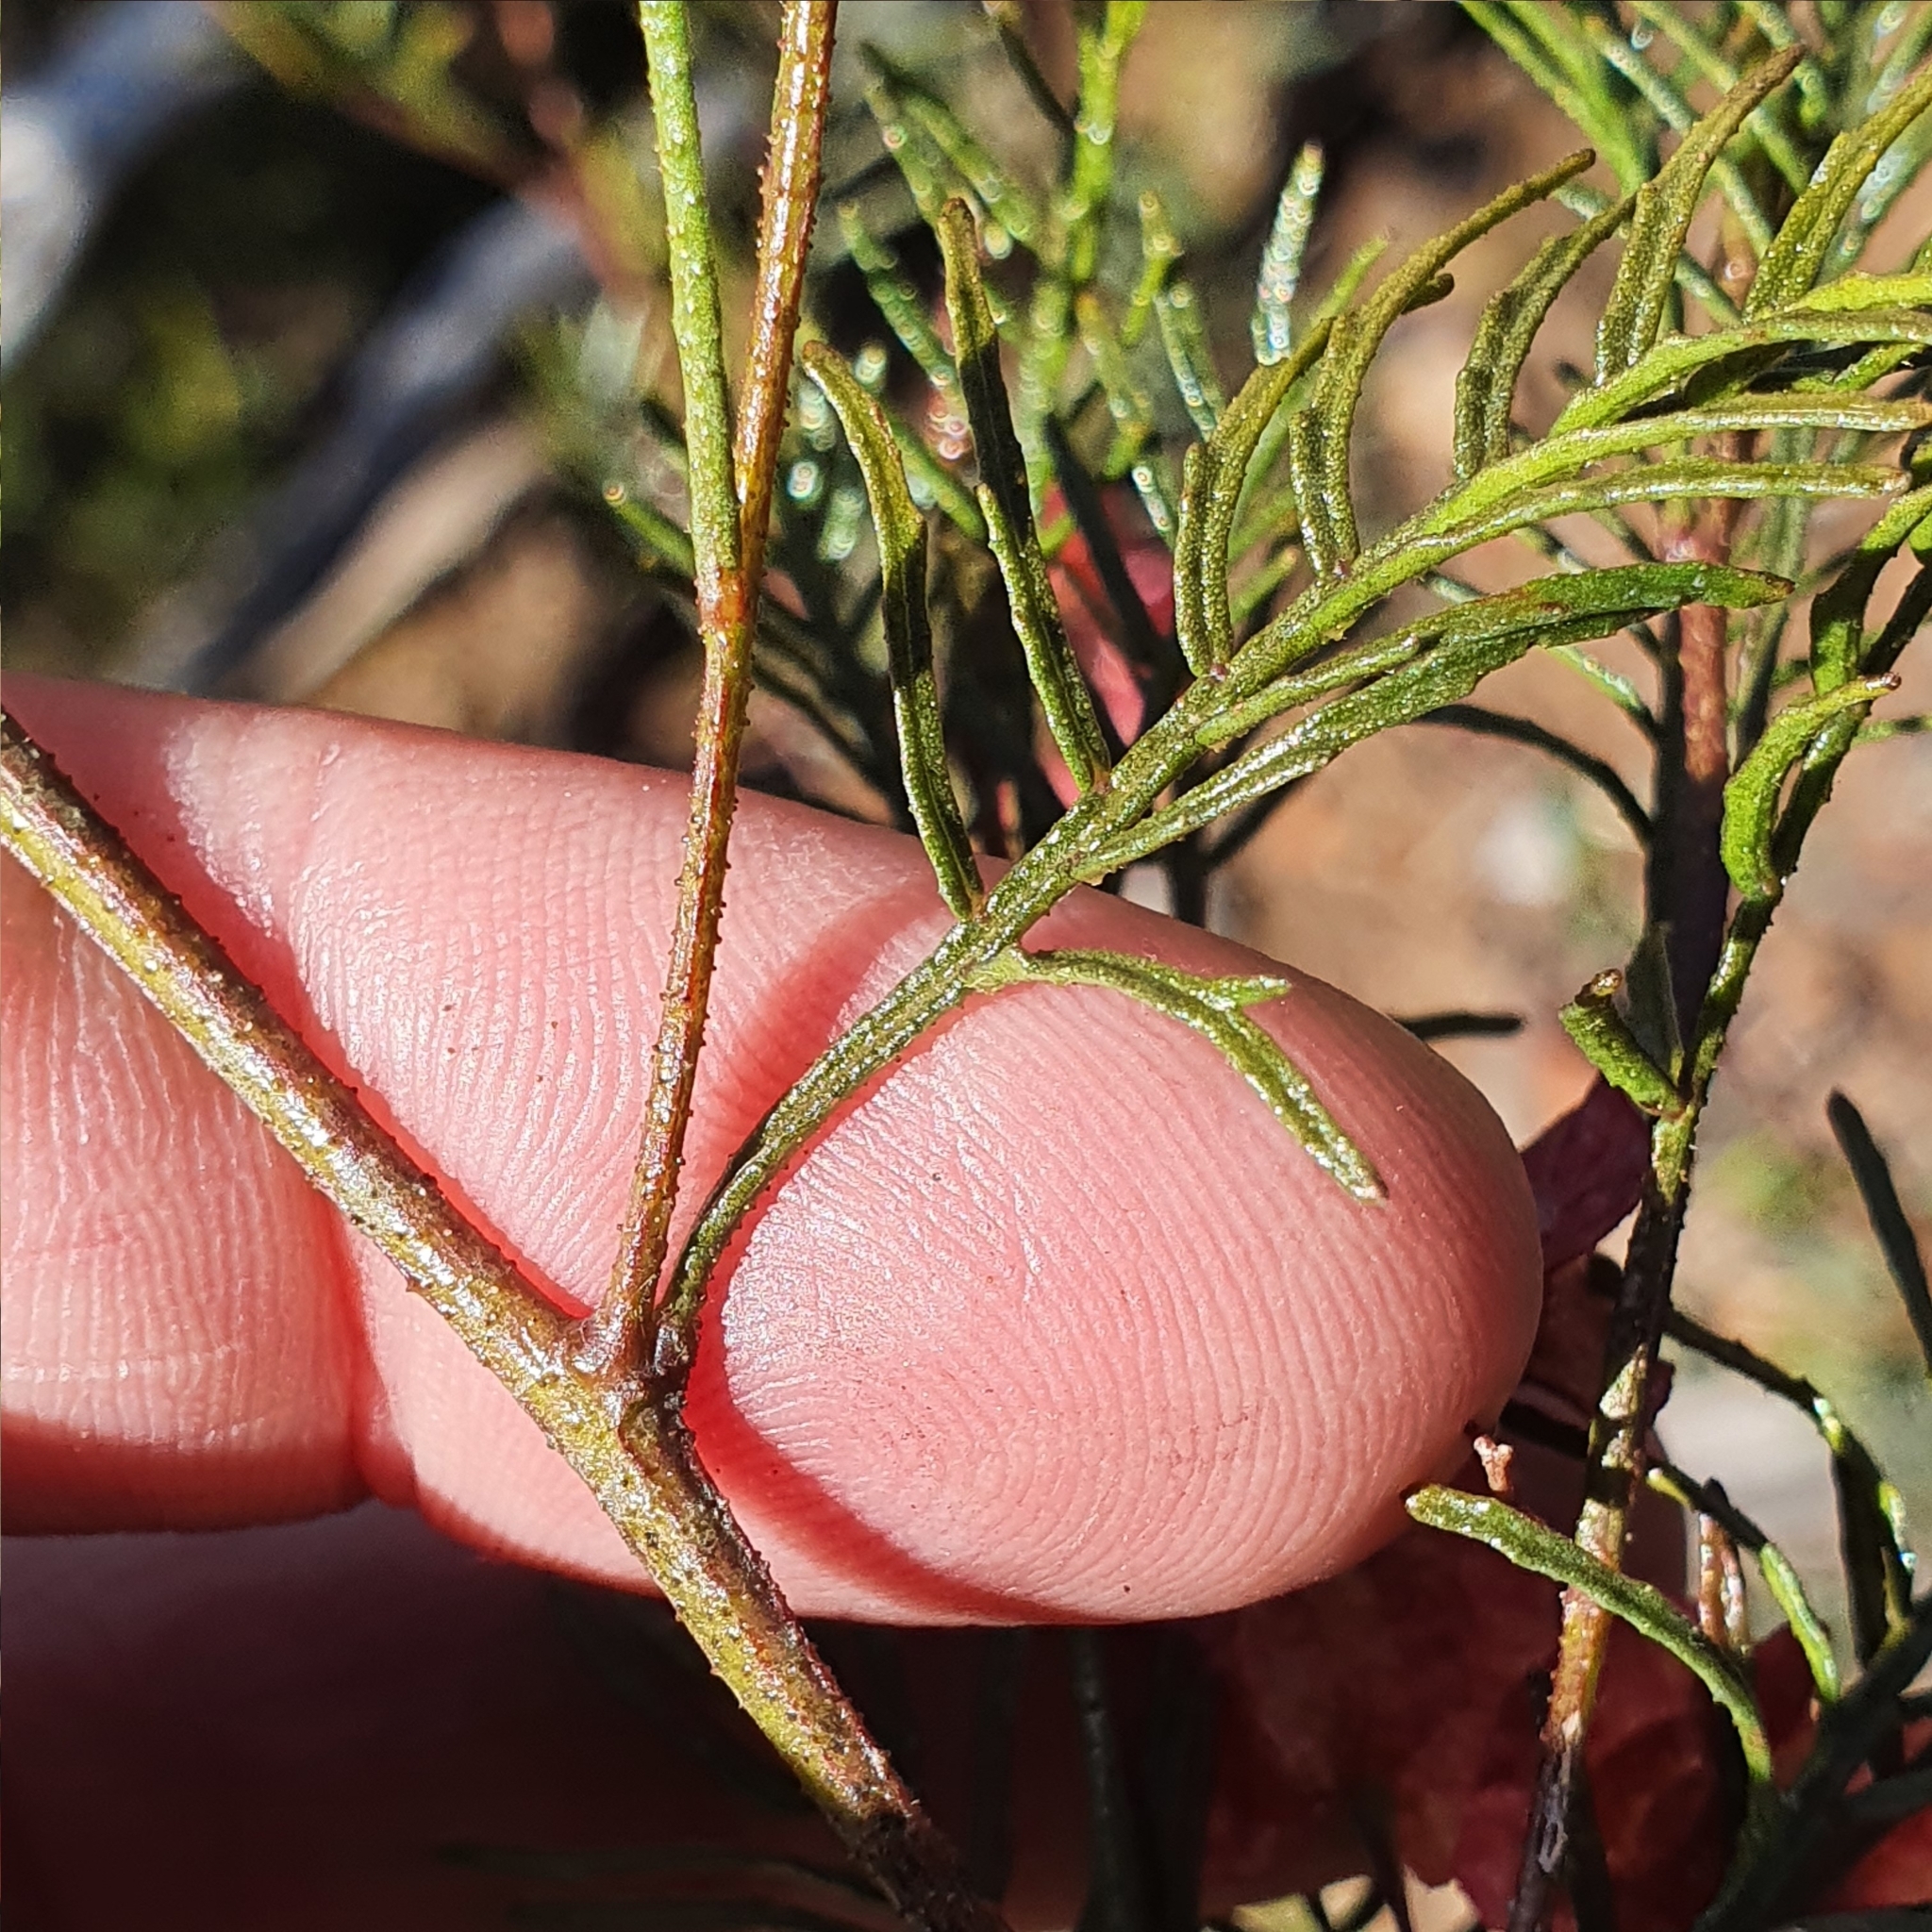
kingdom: Plantae
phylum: Tracheophyta
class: Magnoliopsida
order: Sapindales
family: Sapindaceae
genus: Dodonaea
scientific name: Dodonaea sinuolata
